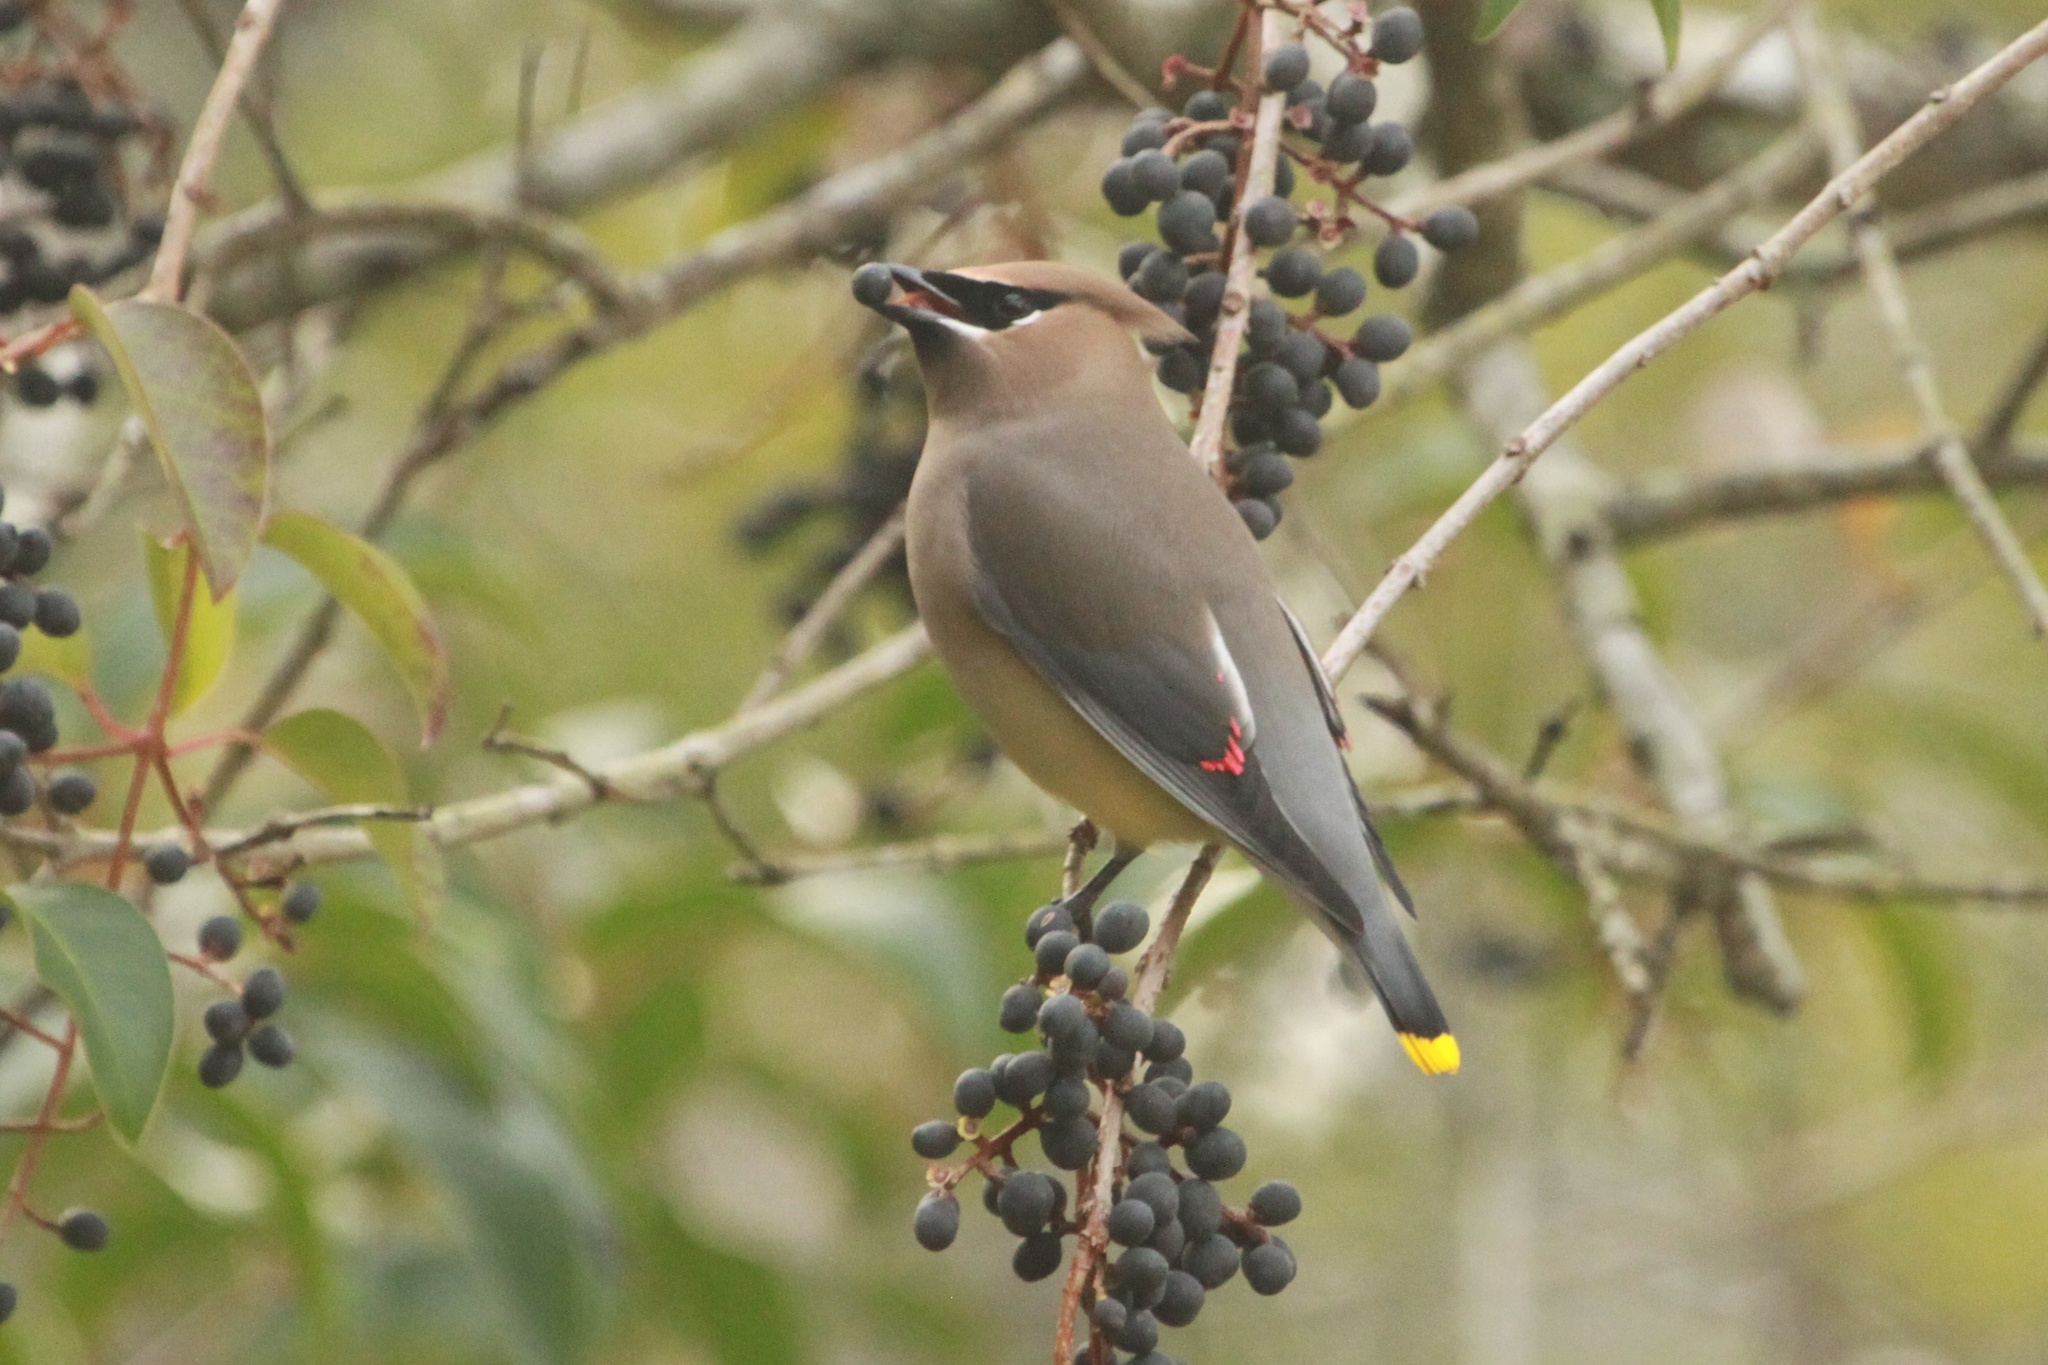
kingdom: Animalia
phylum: Chordata
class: Aves
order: Passeriformes
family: Bombycillidae
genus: Bombycilla
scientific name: Bombycilla cedrorum
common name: Cedar waxwing
